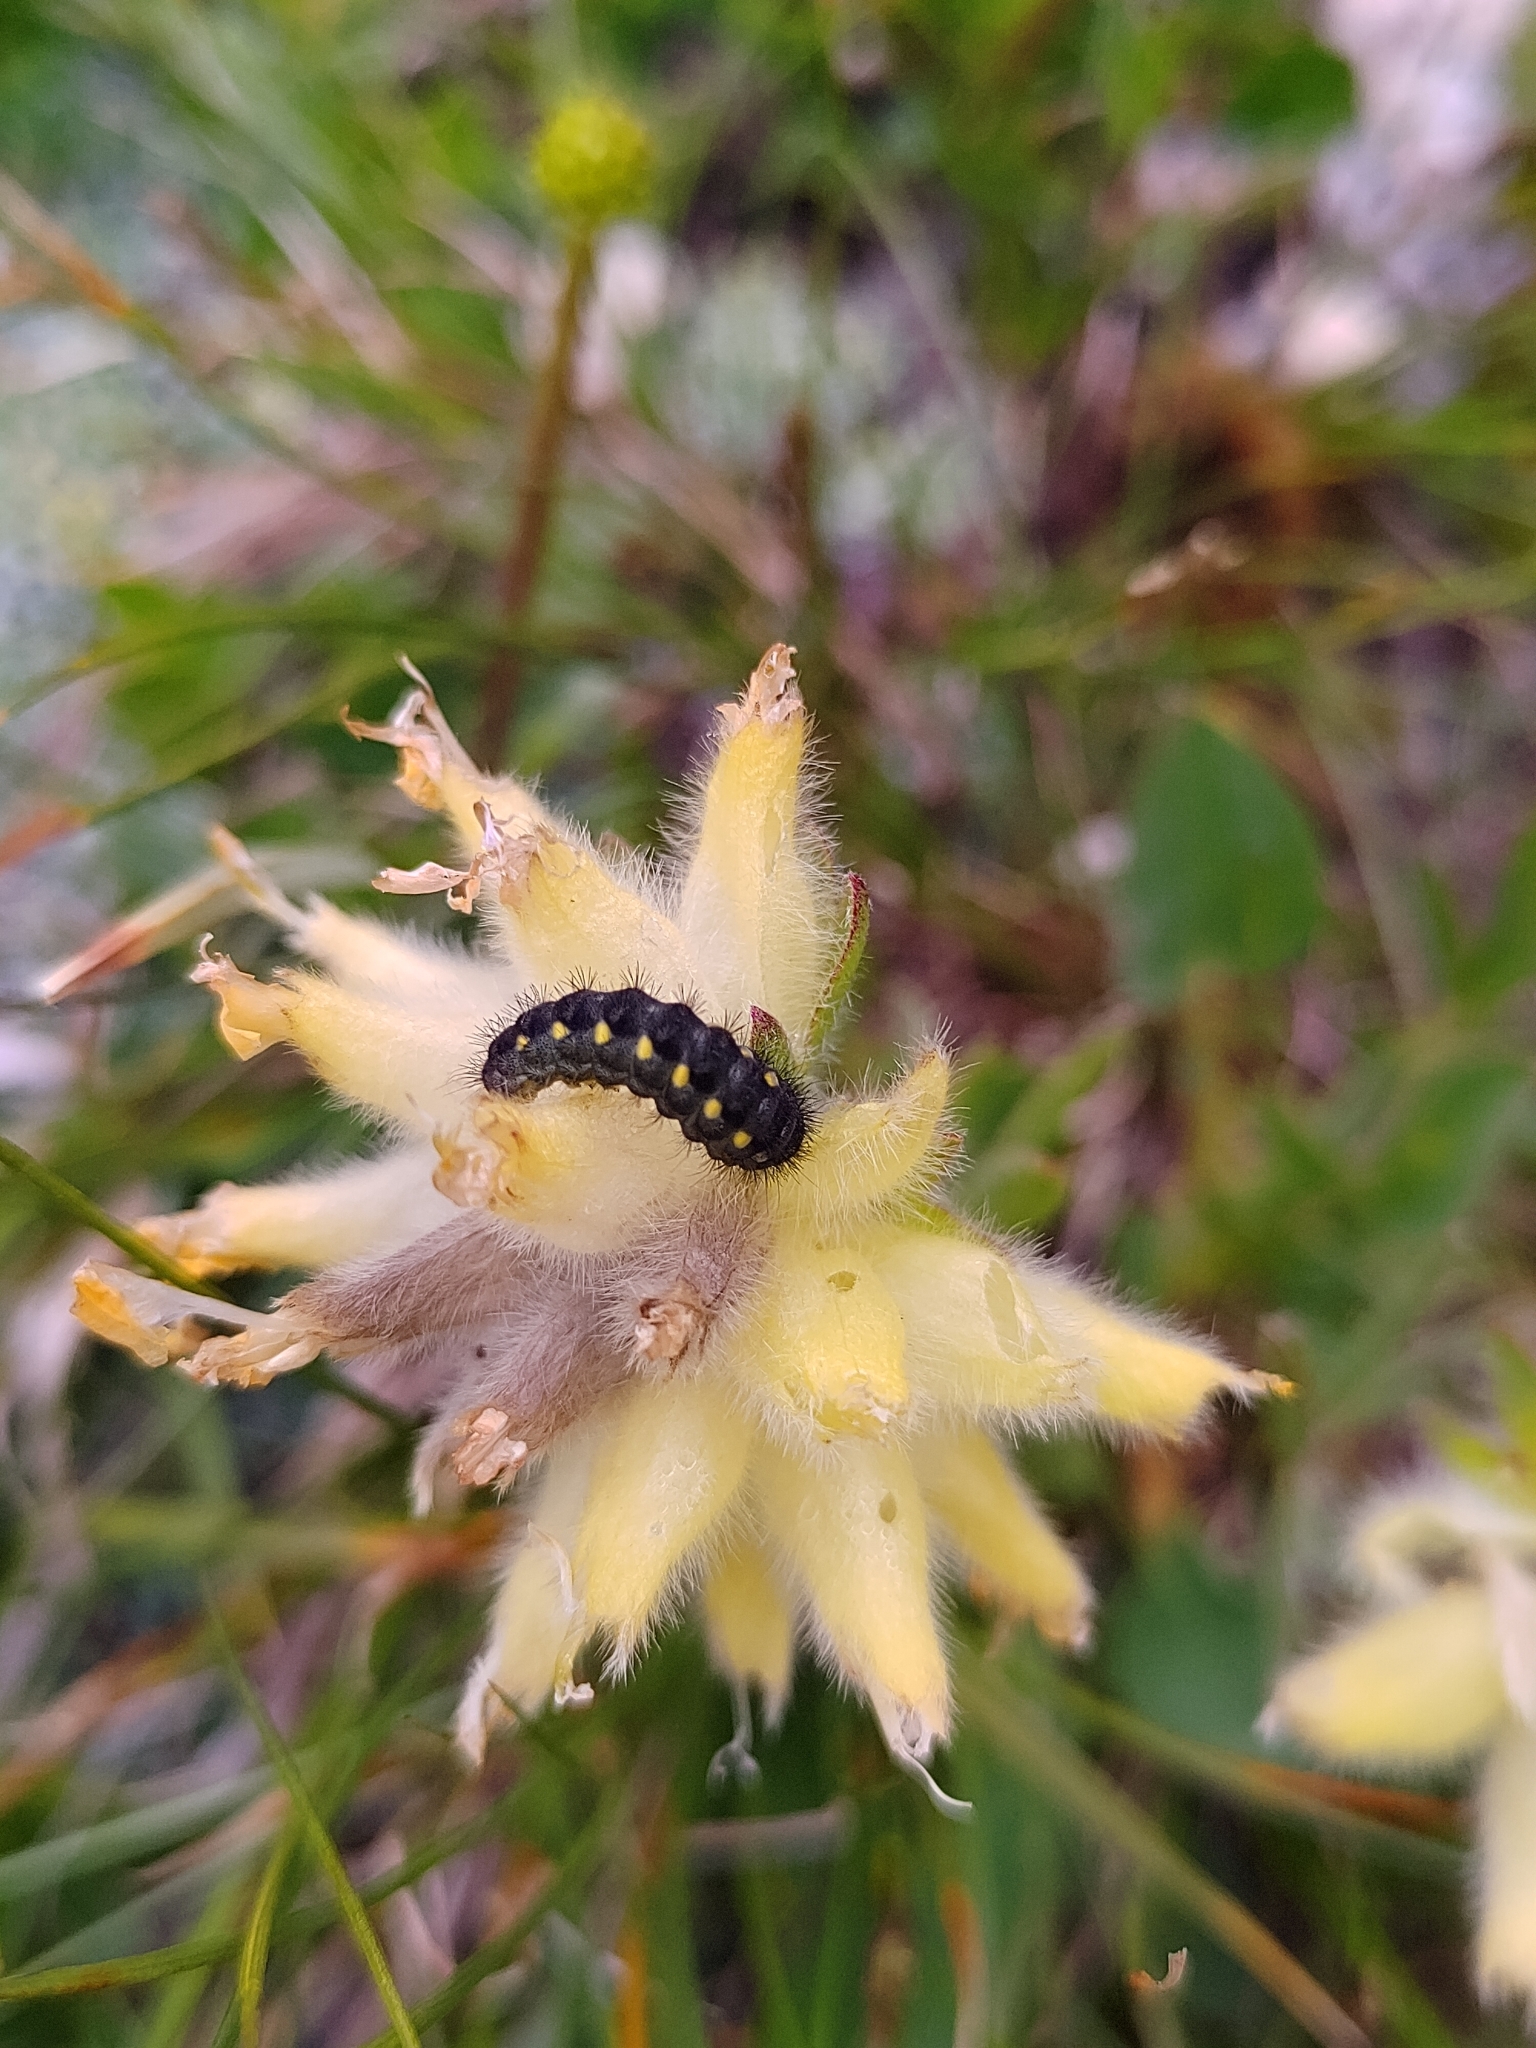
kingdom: Animalia
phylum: Arthropoda
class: Insecta
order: Lepidoptera
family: Zygaenidae
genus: Zygaena
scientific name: Zygaena exulans
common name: Scotch burnet
